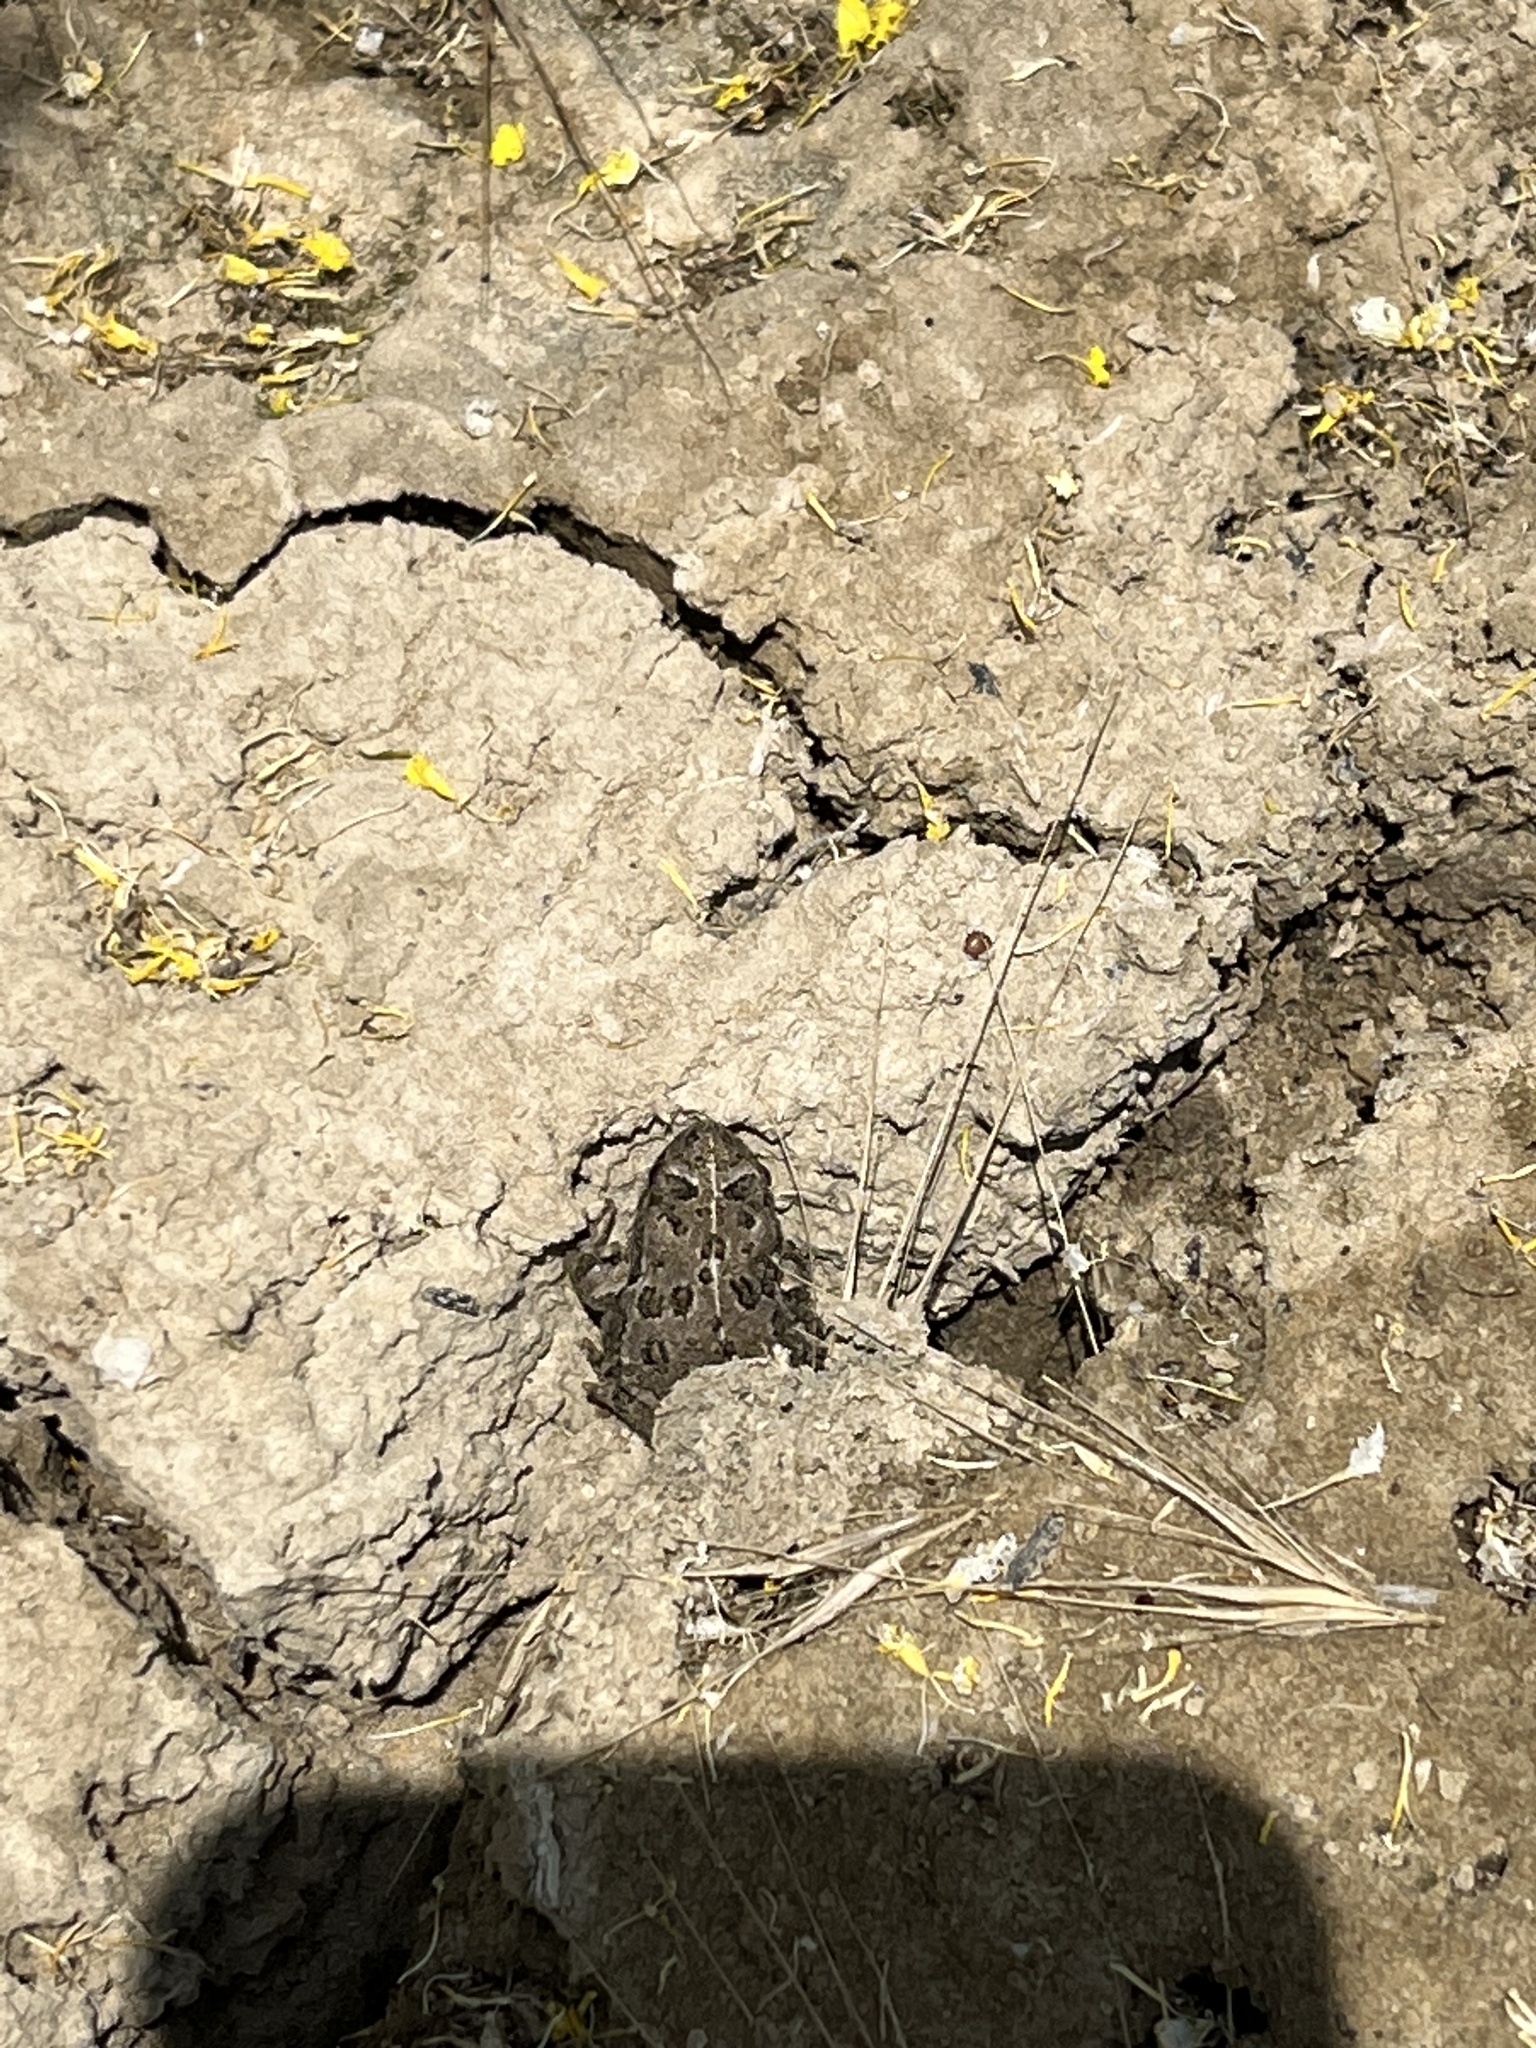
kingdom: Animalia
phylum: Chordata
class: Amphibia
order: Anura
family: Bufonidae
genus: Anaxyrus
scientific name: Anaxyrus boreas
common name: Western toad
